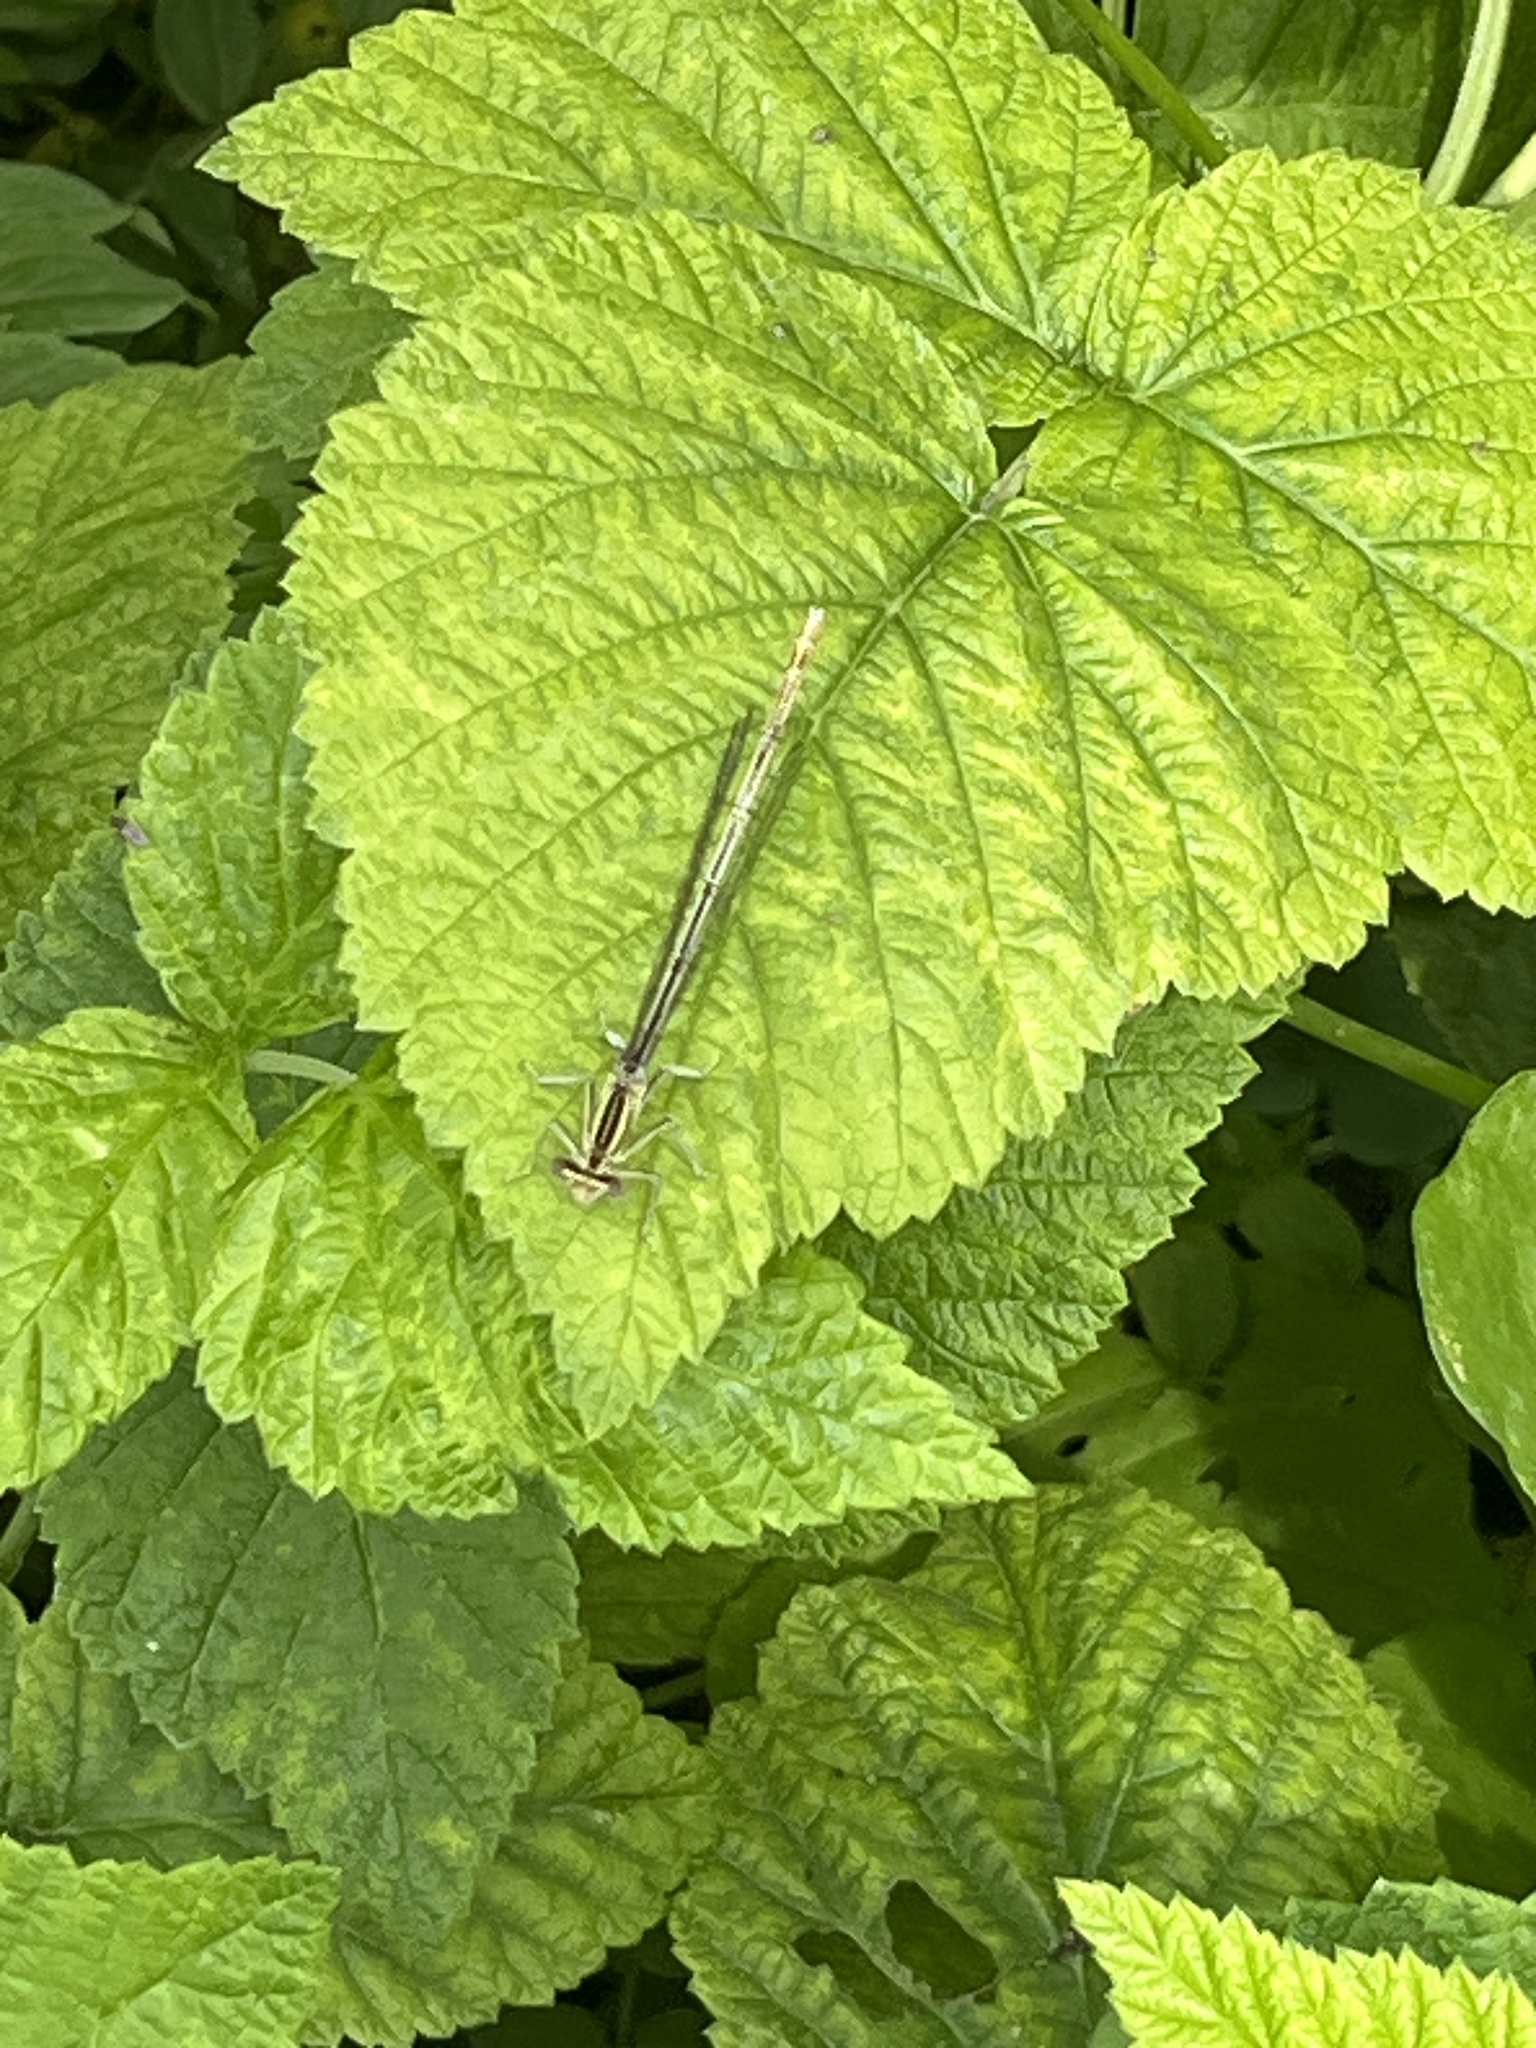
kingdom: Animalia
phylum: Arthropoda
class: Insecta
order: Odonata
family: Platycnemididae
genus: Platycnemis
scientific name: Platycnemis pennipes
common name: White-legged damselfly
